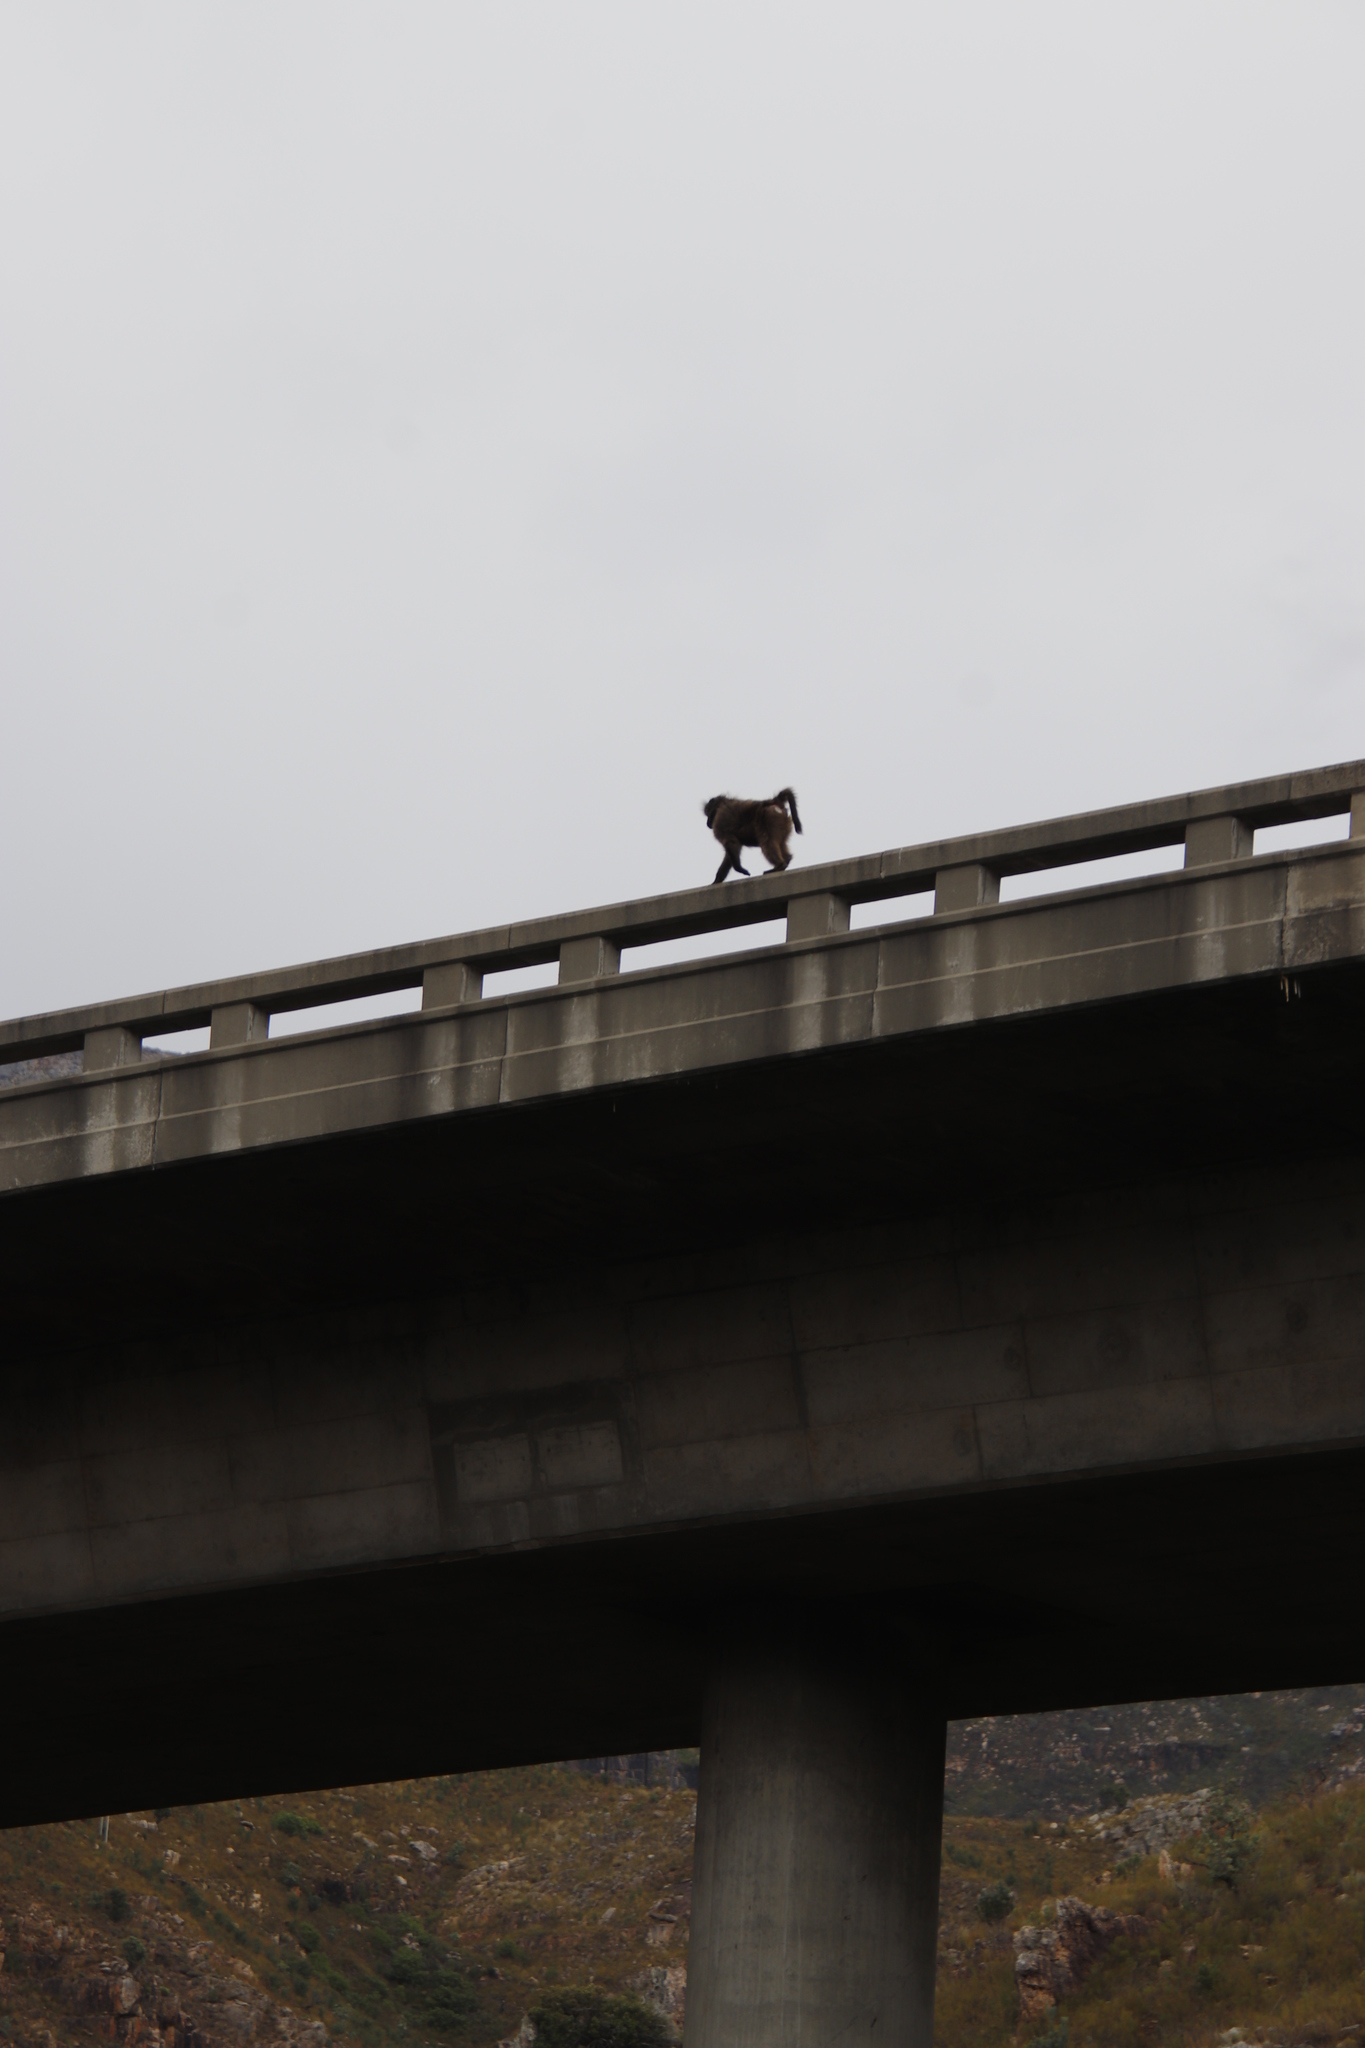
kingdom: Animalia
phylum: Chordata
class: Mammalia
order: Primates
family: Cercopithecidae
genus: Papio
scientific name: Papio ursinus
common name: Chacma baboon
